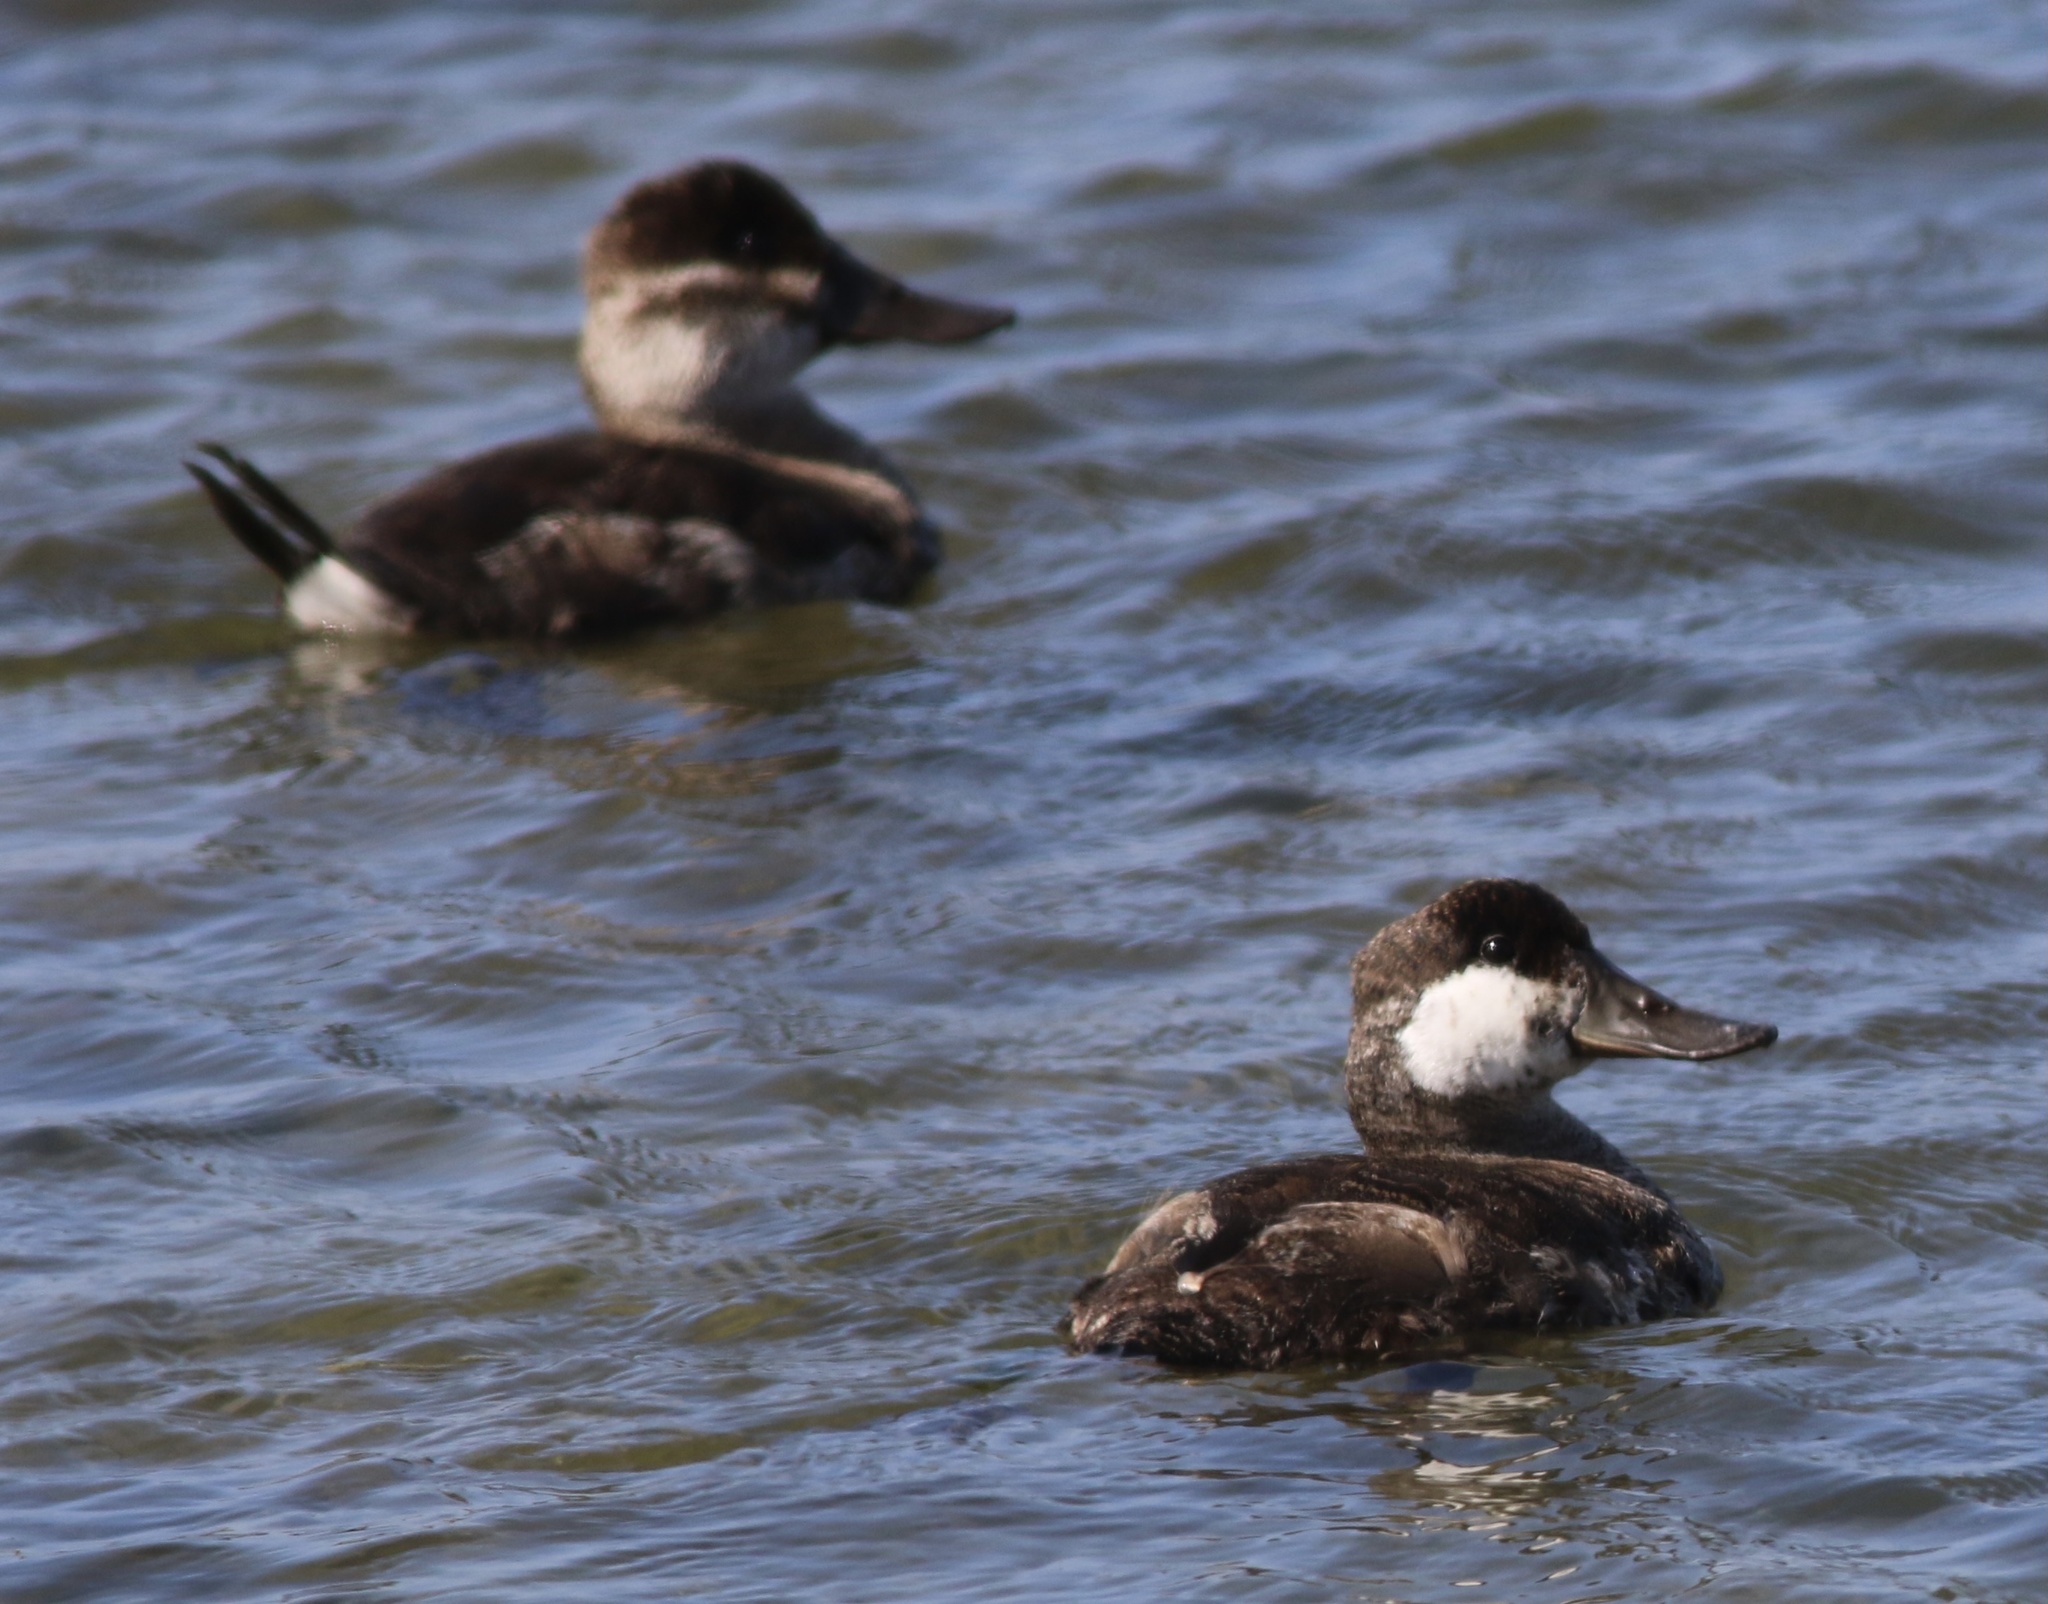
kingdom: Animalia
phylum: Chordata
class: Aves
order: Anseriformes
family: Anatidae
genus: Oxyura
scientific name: Oxyura jamaicensis
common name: Ruddy duck
